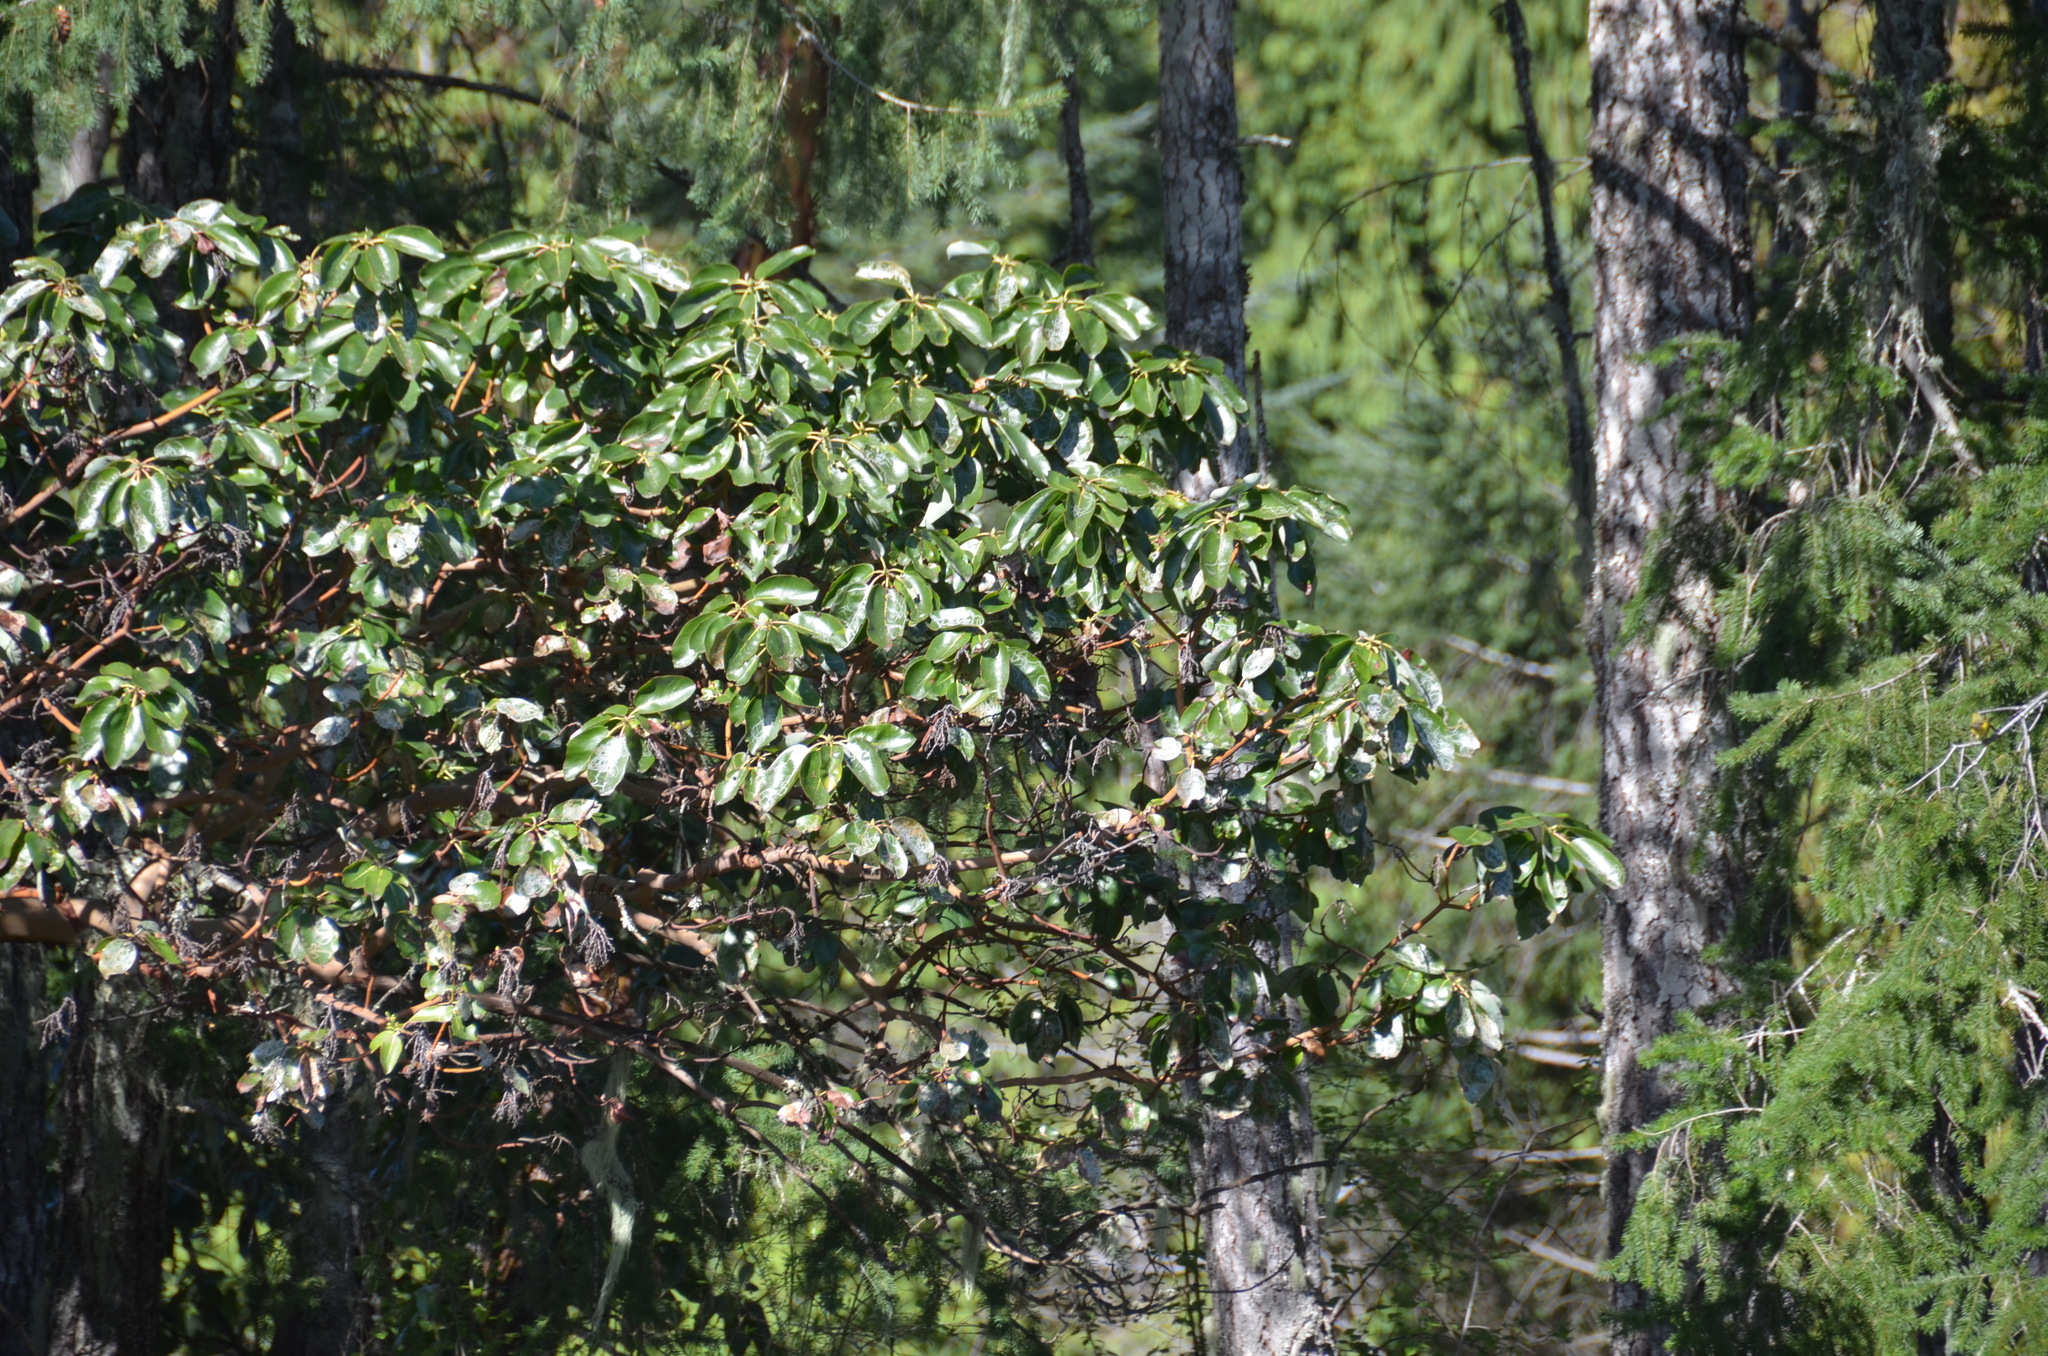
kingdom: Plantae
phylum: Tracheophyta
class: Magnoliopsida
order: Ericales
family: Ericaceae
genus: Arbutus
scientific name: Arbutus menziesii
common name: Pacific madrone
